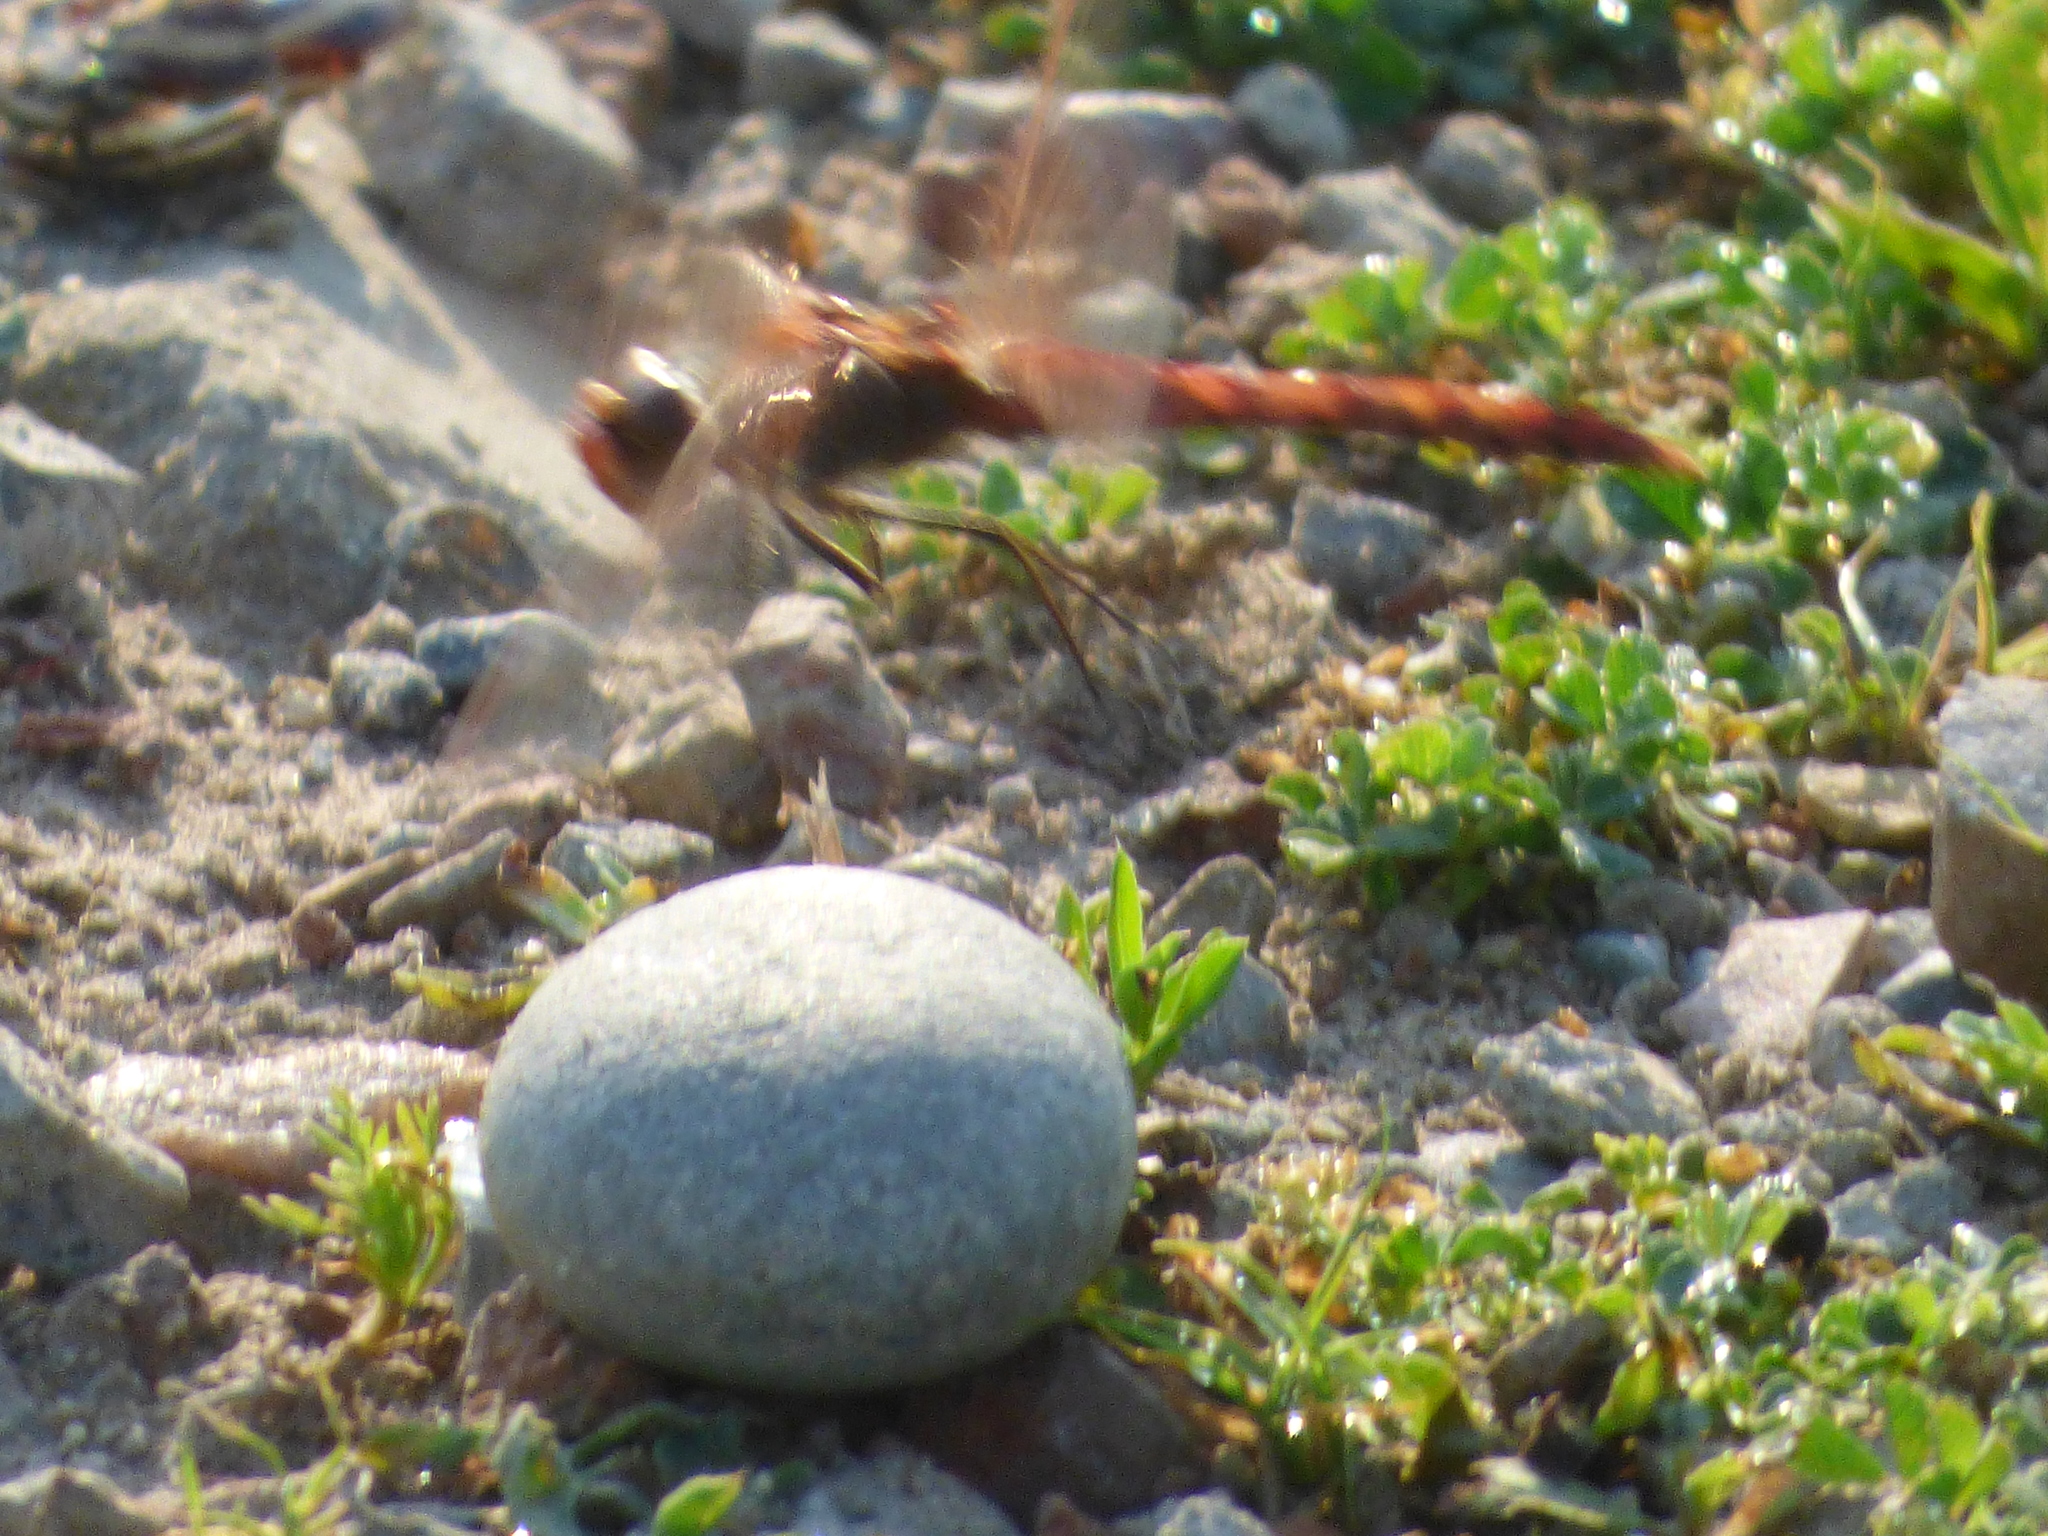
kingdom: Animalia
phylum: Arthropoda
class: Insecta
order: Odonata
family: Libellulidae
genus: Sympetrum
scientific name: Sympetrum
